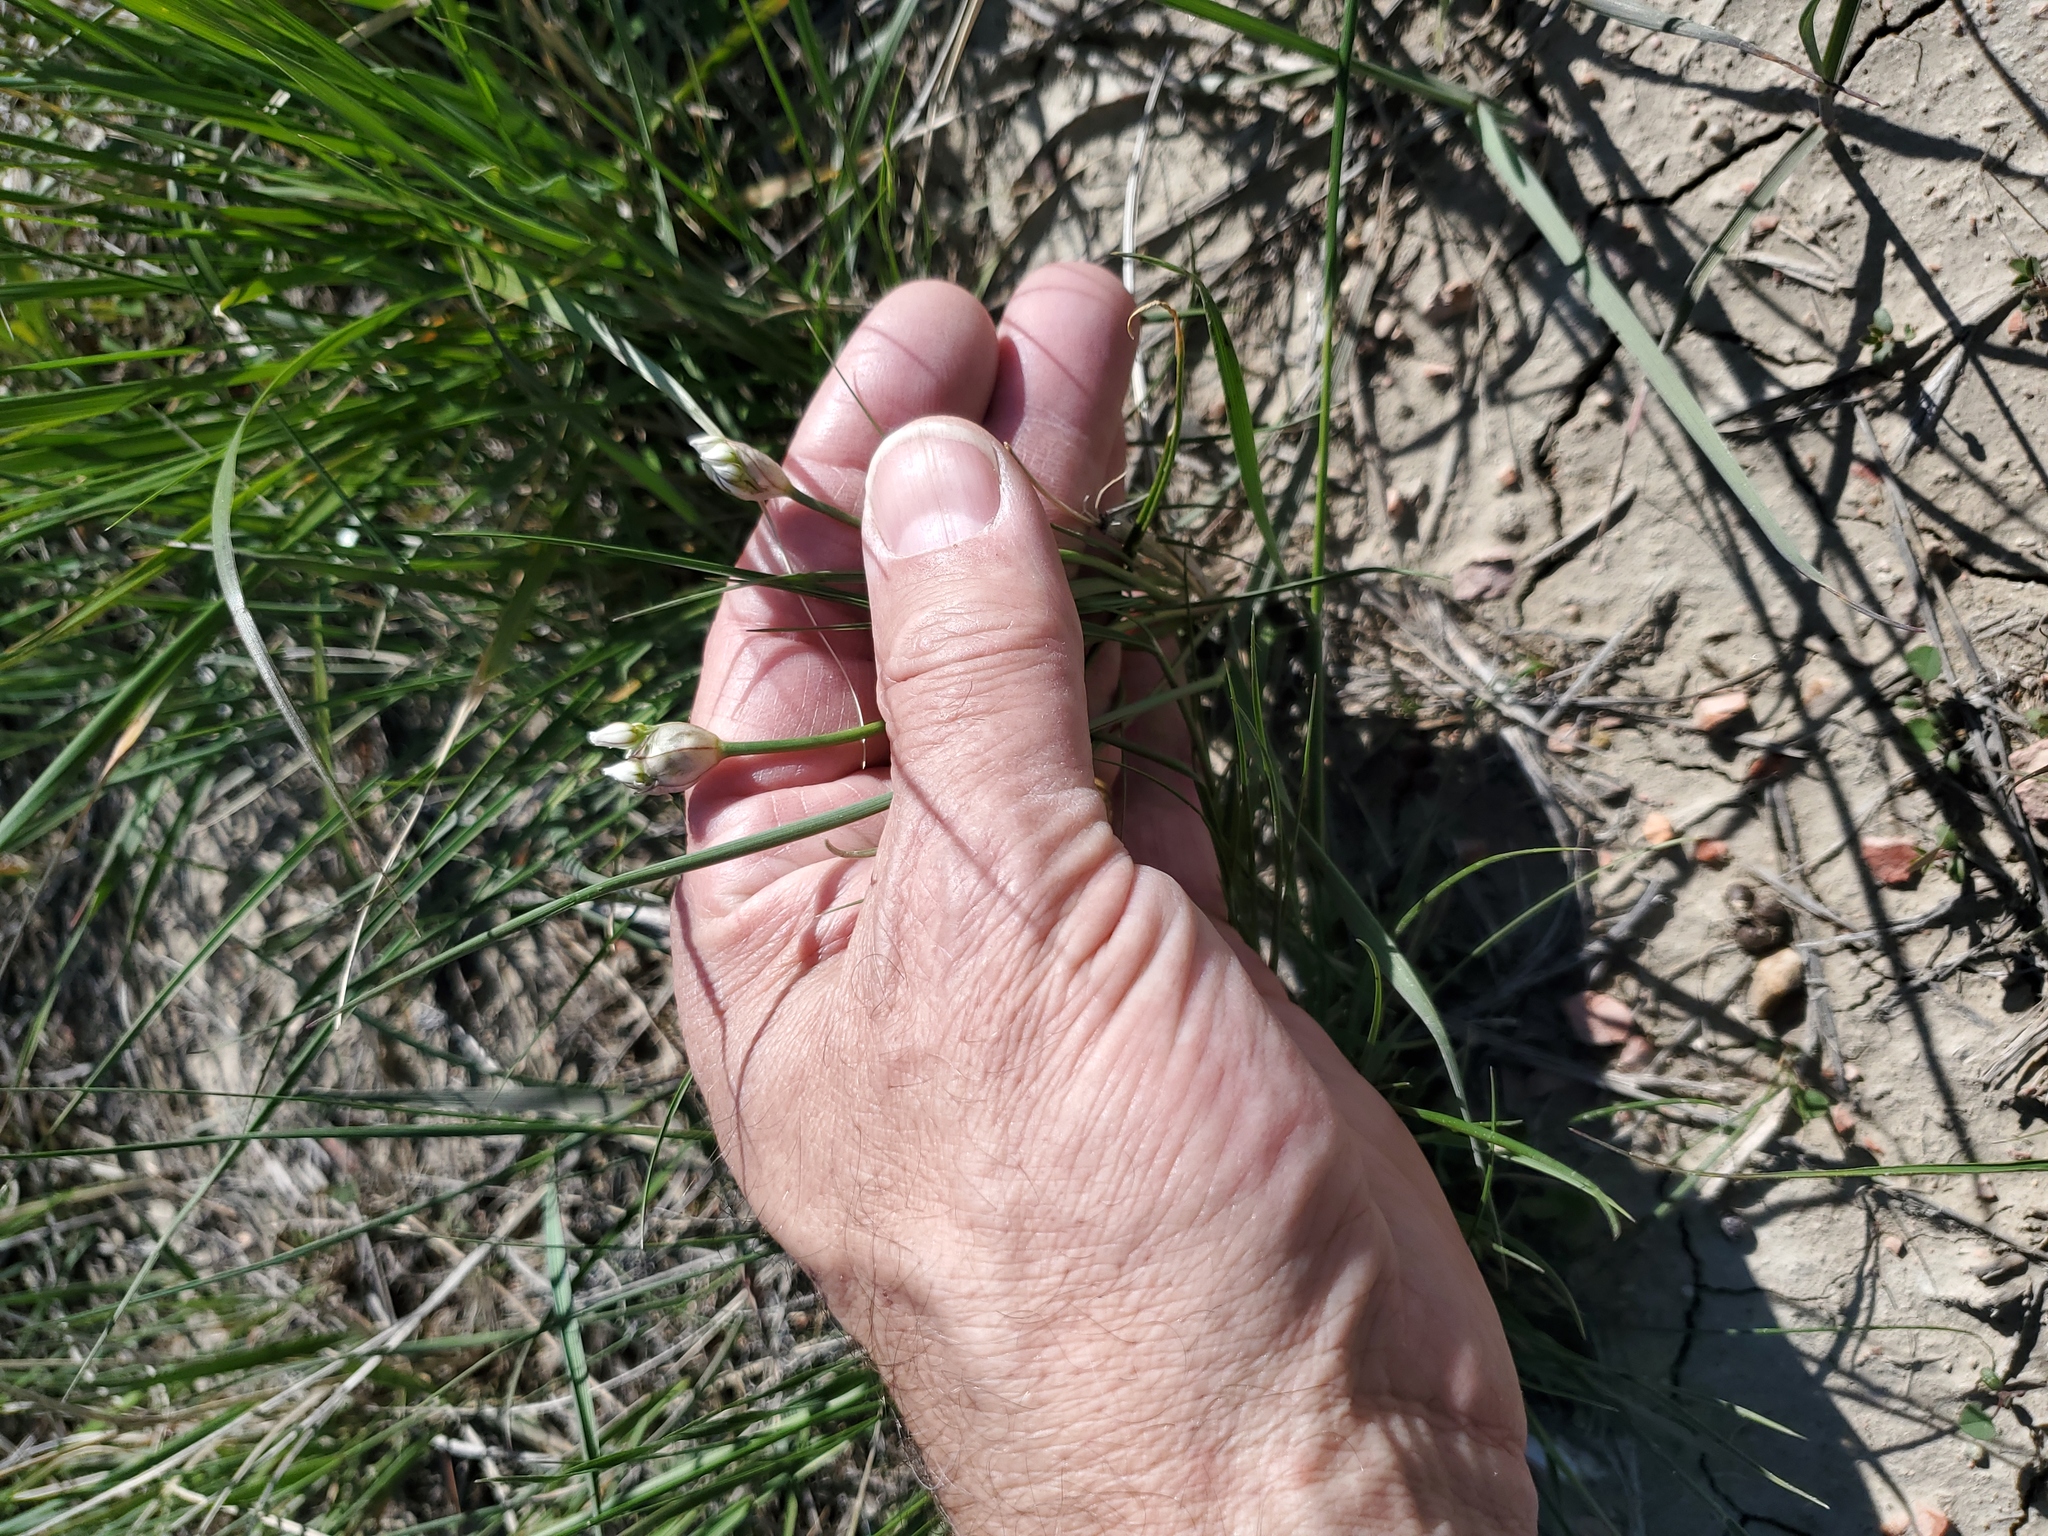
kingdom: Plantae
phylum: Tracheophyta
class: Liliopsida
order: Asparagales
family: Amaryllidaceae
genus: Allium
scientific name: Allium textile
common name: Prairie onion
